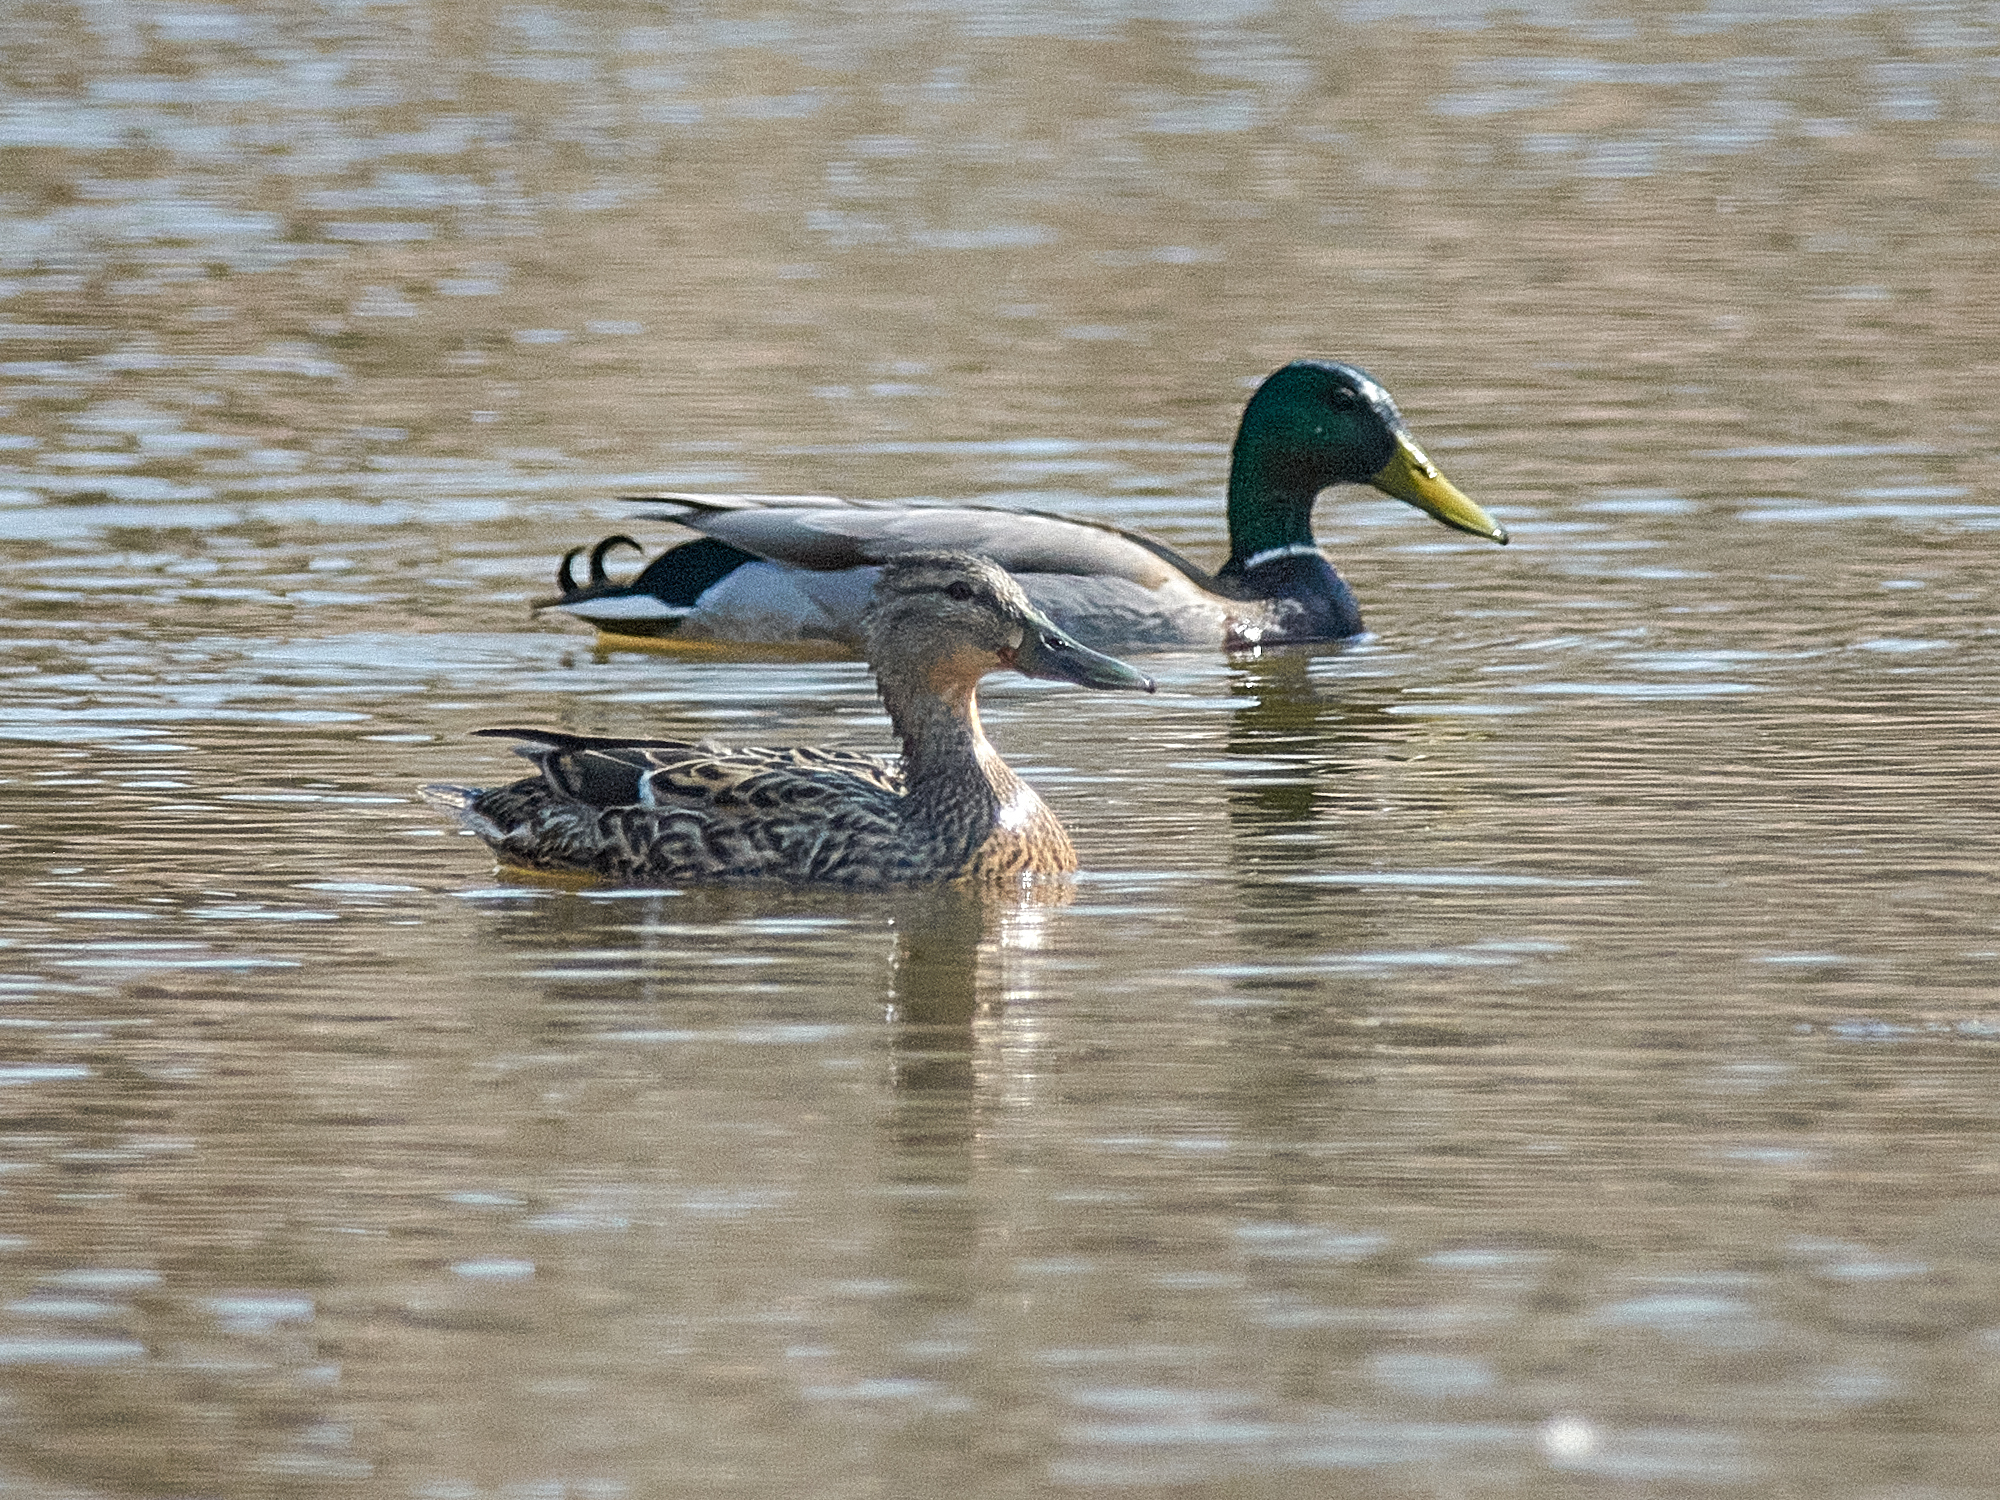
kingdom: Animalia
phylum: Chordata
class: Aves
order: Anseriformes
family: Anatidae
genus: Anas
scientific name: Anas platyrhynchos
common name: Mallard
